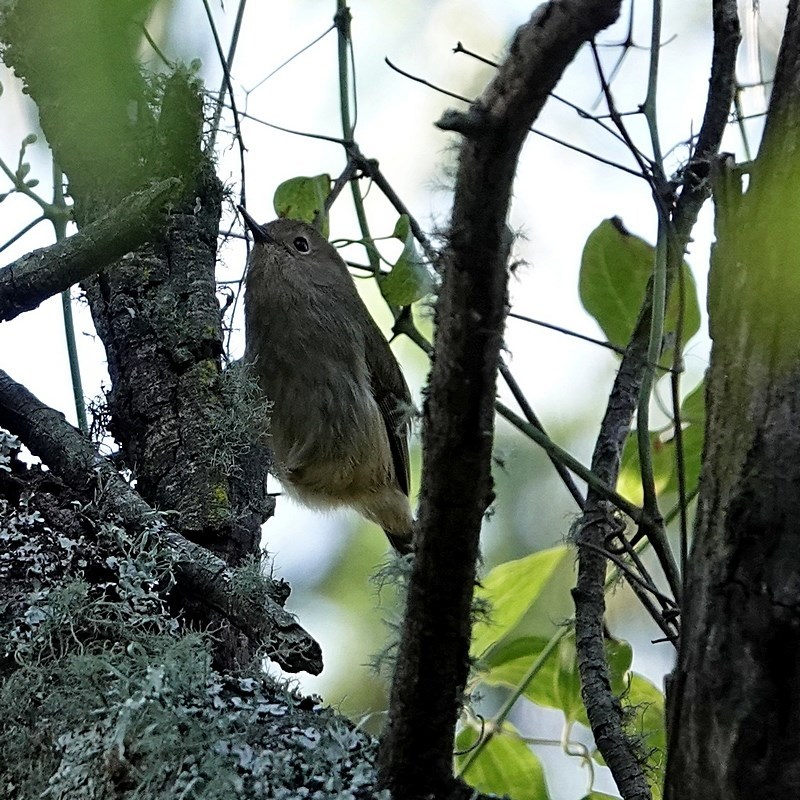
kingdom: Animalia
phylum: Chordata
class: Aves
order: Passeriformes
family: Acanthizidae
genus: Sericornis
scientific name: Sericornis magnirostra
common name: Large-billed scrubwren
